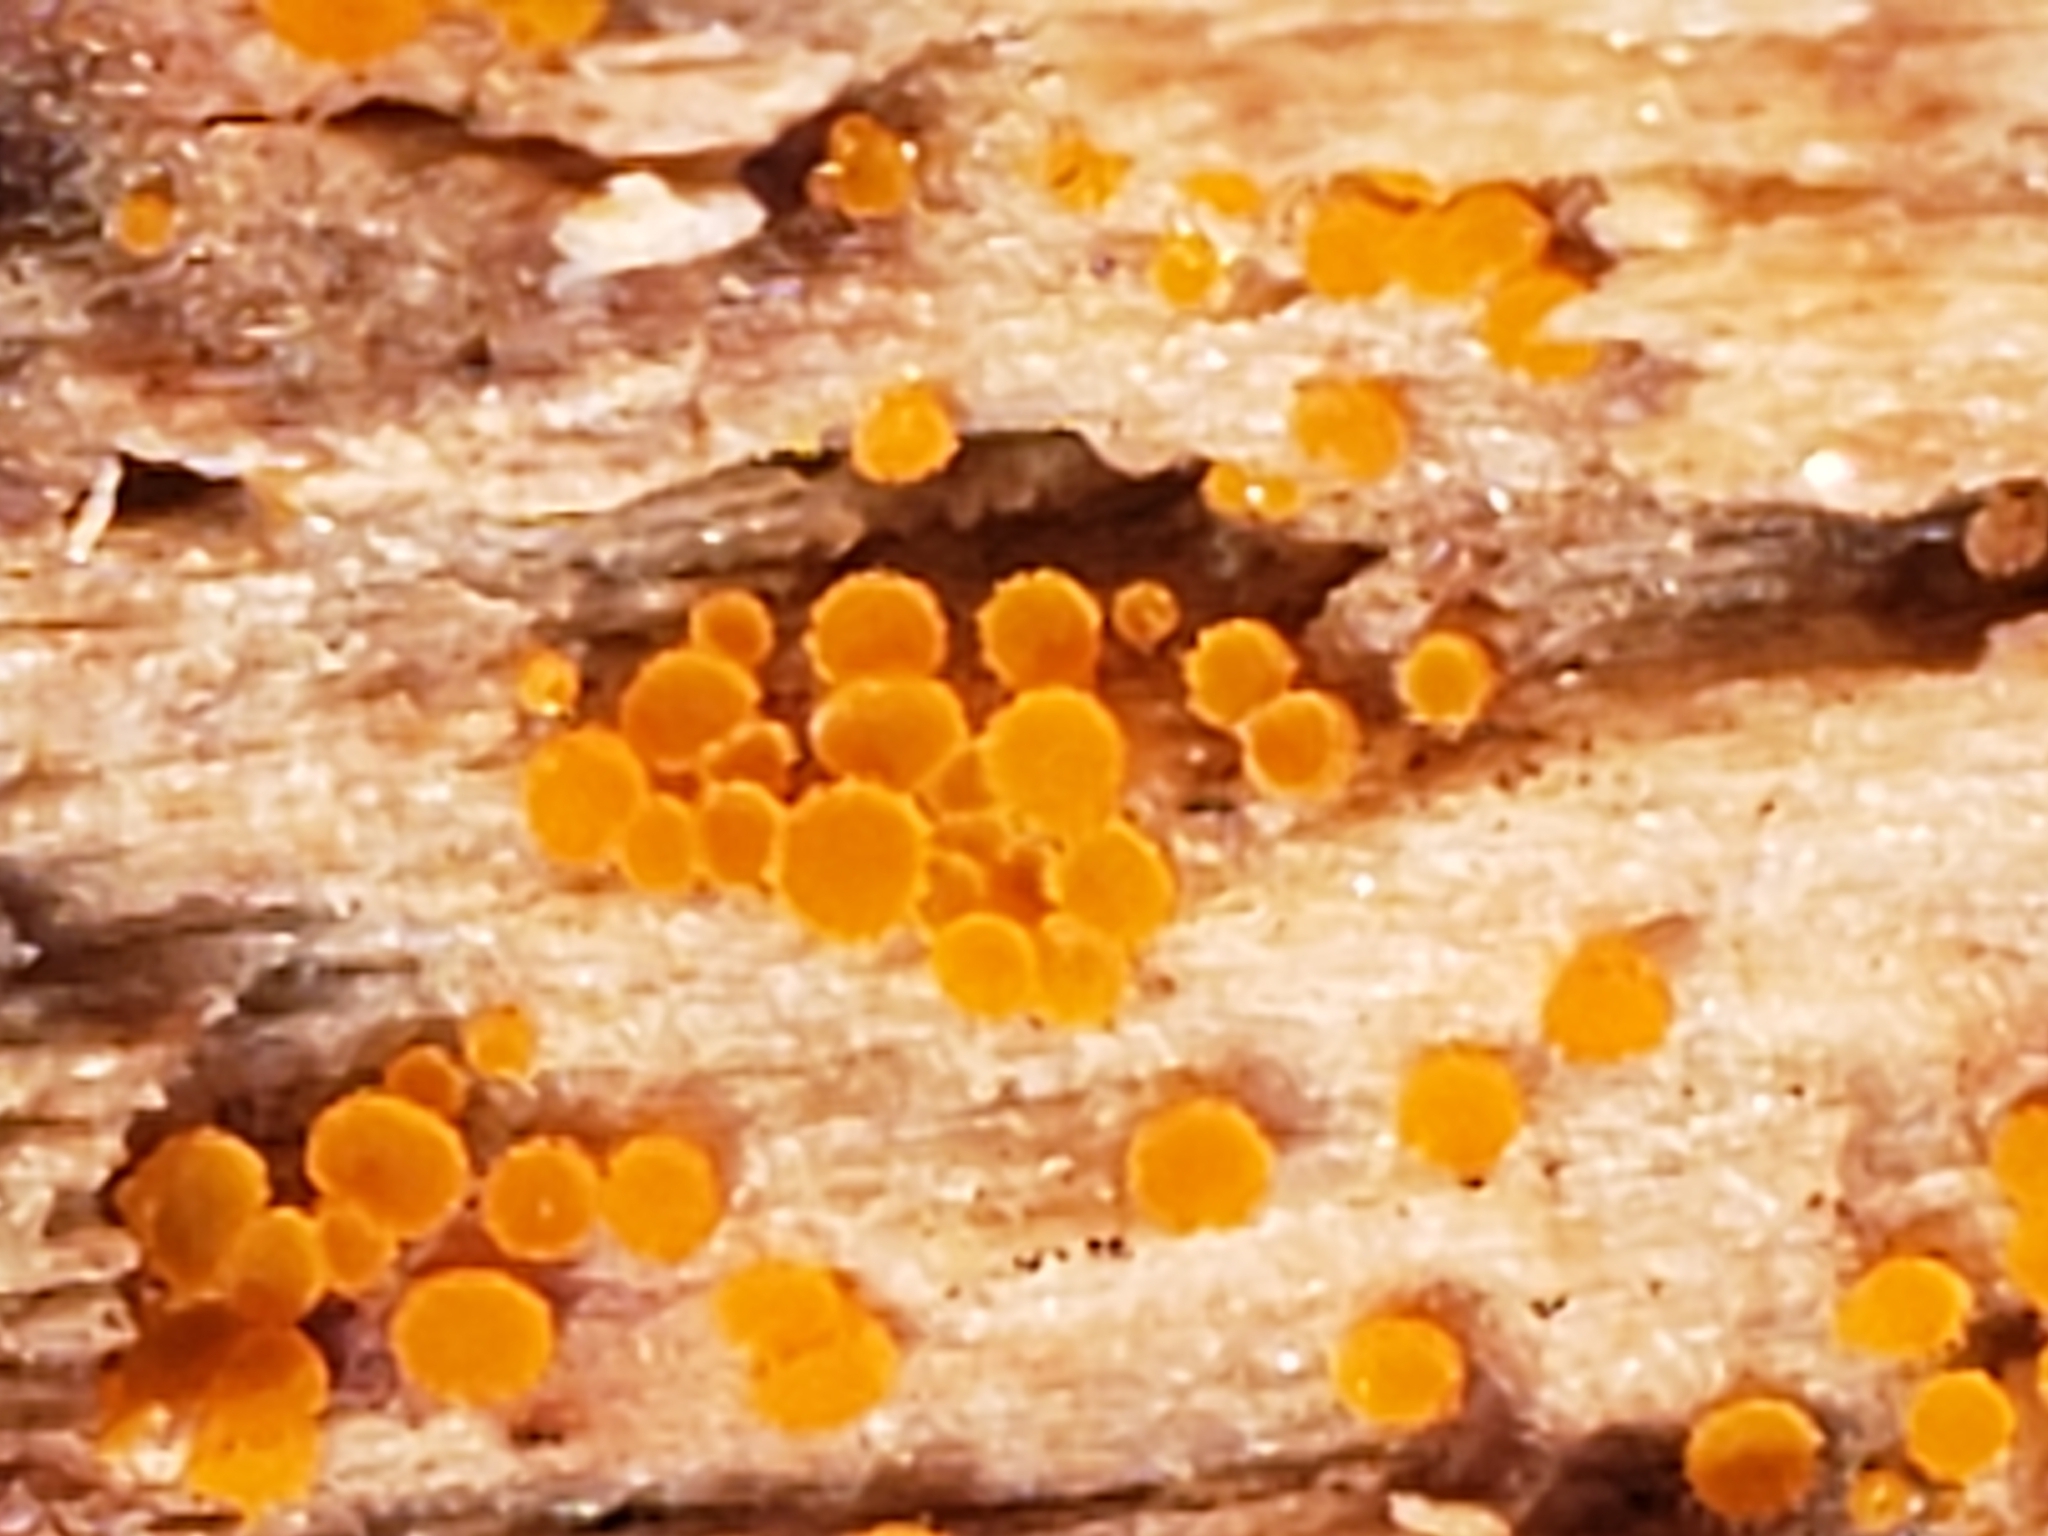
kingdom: Fungi
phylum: Ascomycota
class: Leotiomycetes
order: Helotiales
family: Arachnopezizaceae
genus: Arachnopeziza
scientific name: Arachnopeziza trabinelloides
